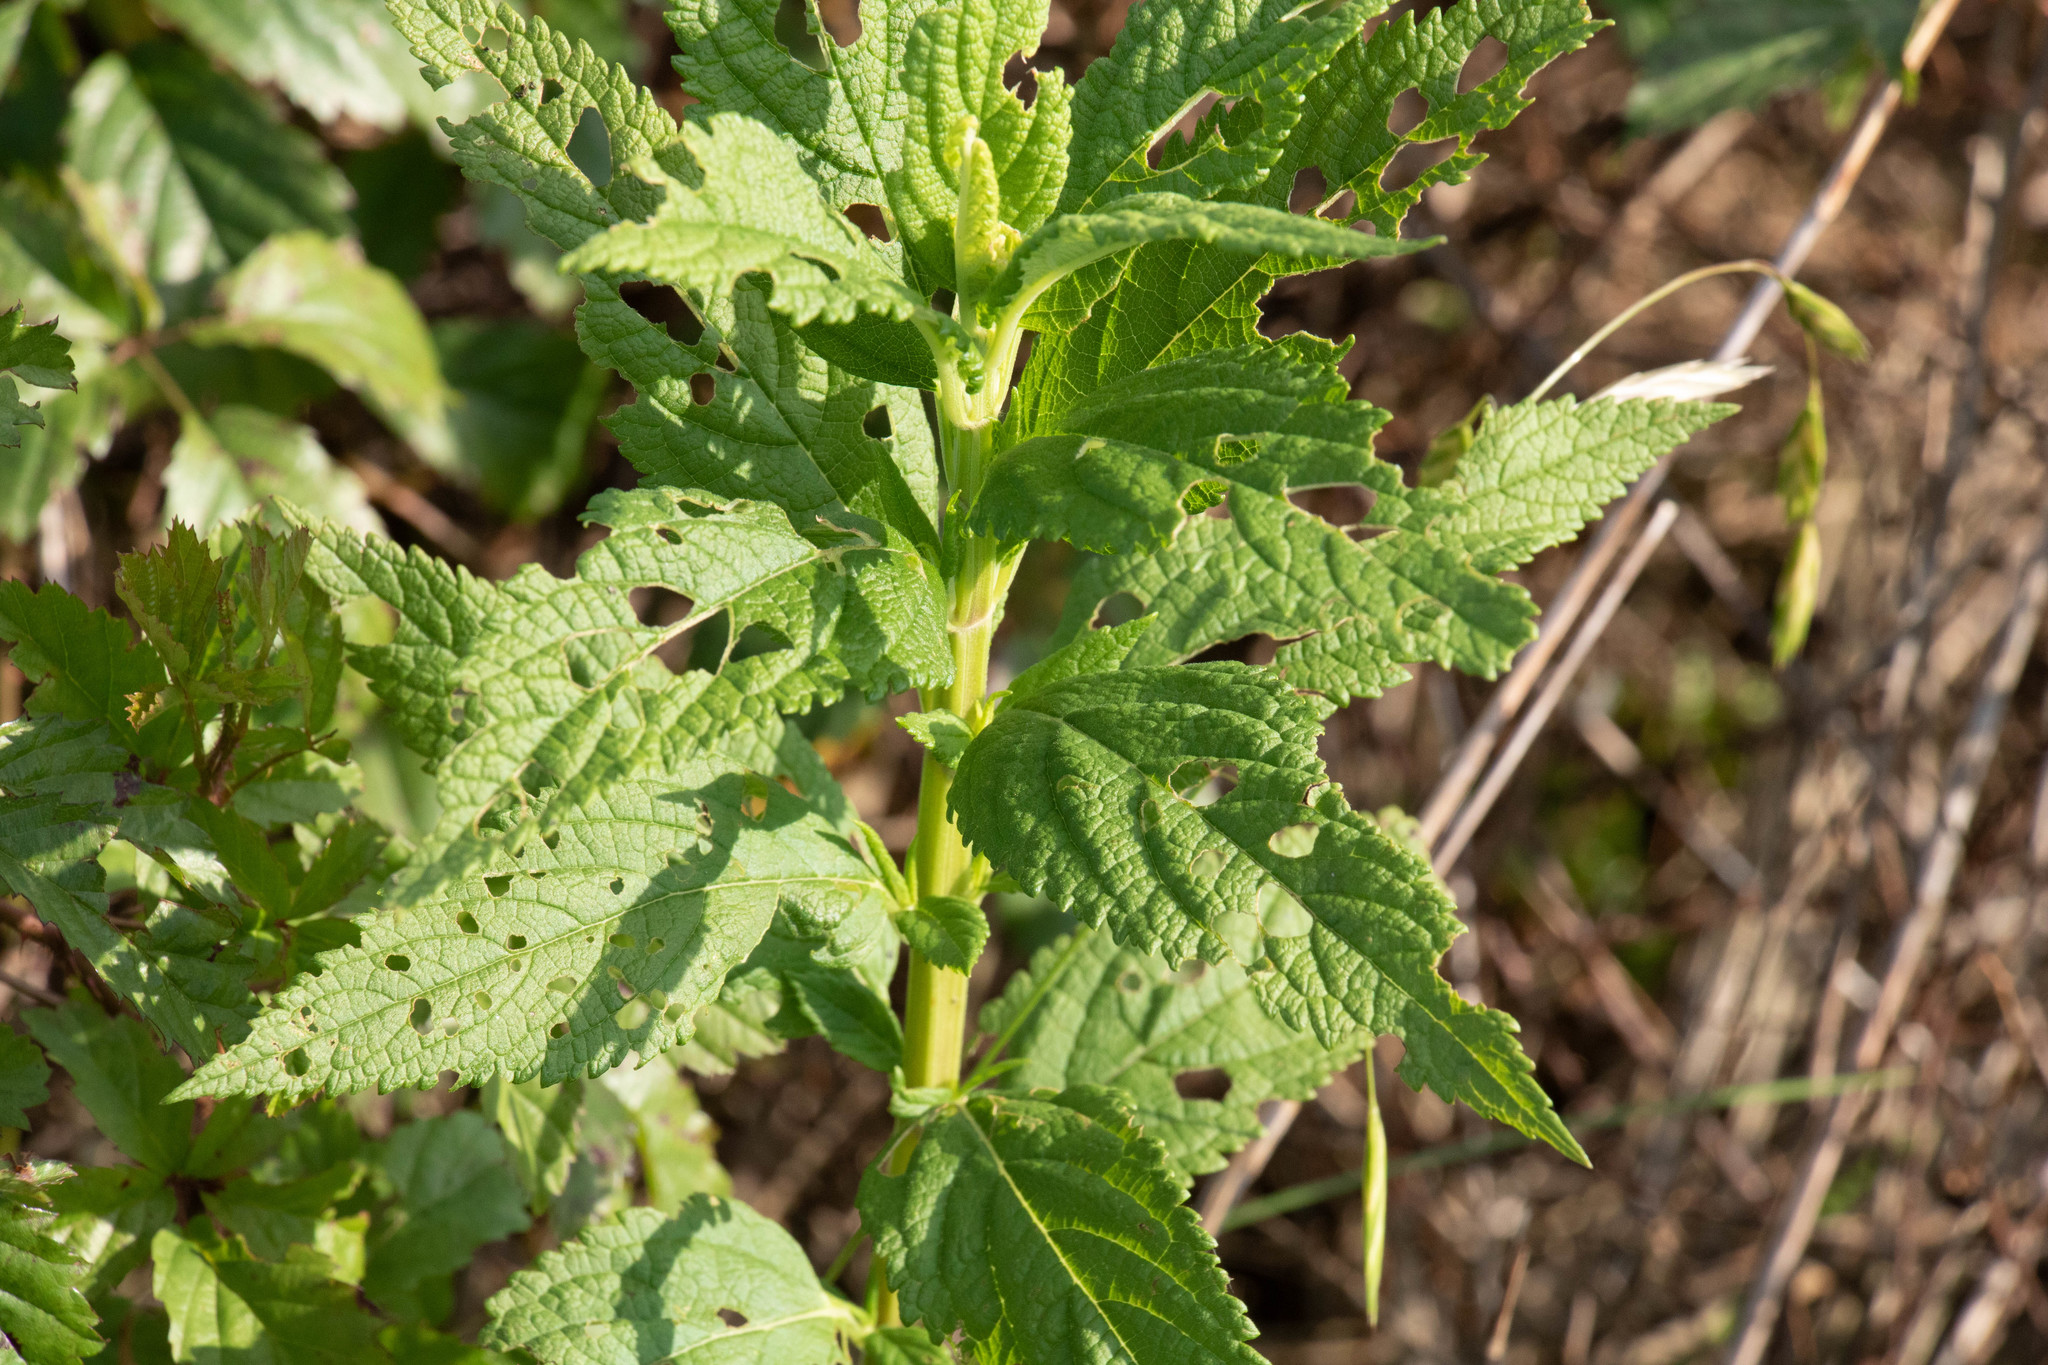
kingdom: Plantae
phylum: Tracheophyta
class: Magnoliopsida
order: Lamiales
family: Lamiaceae
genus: Teucrium
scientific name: Teucrium canadense
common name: American germander
